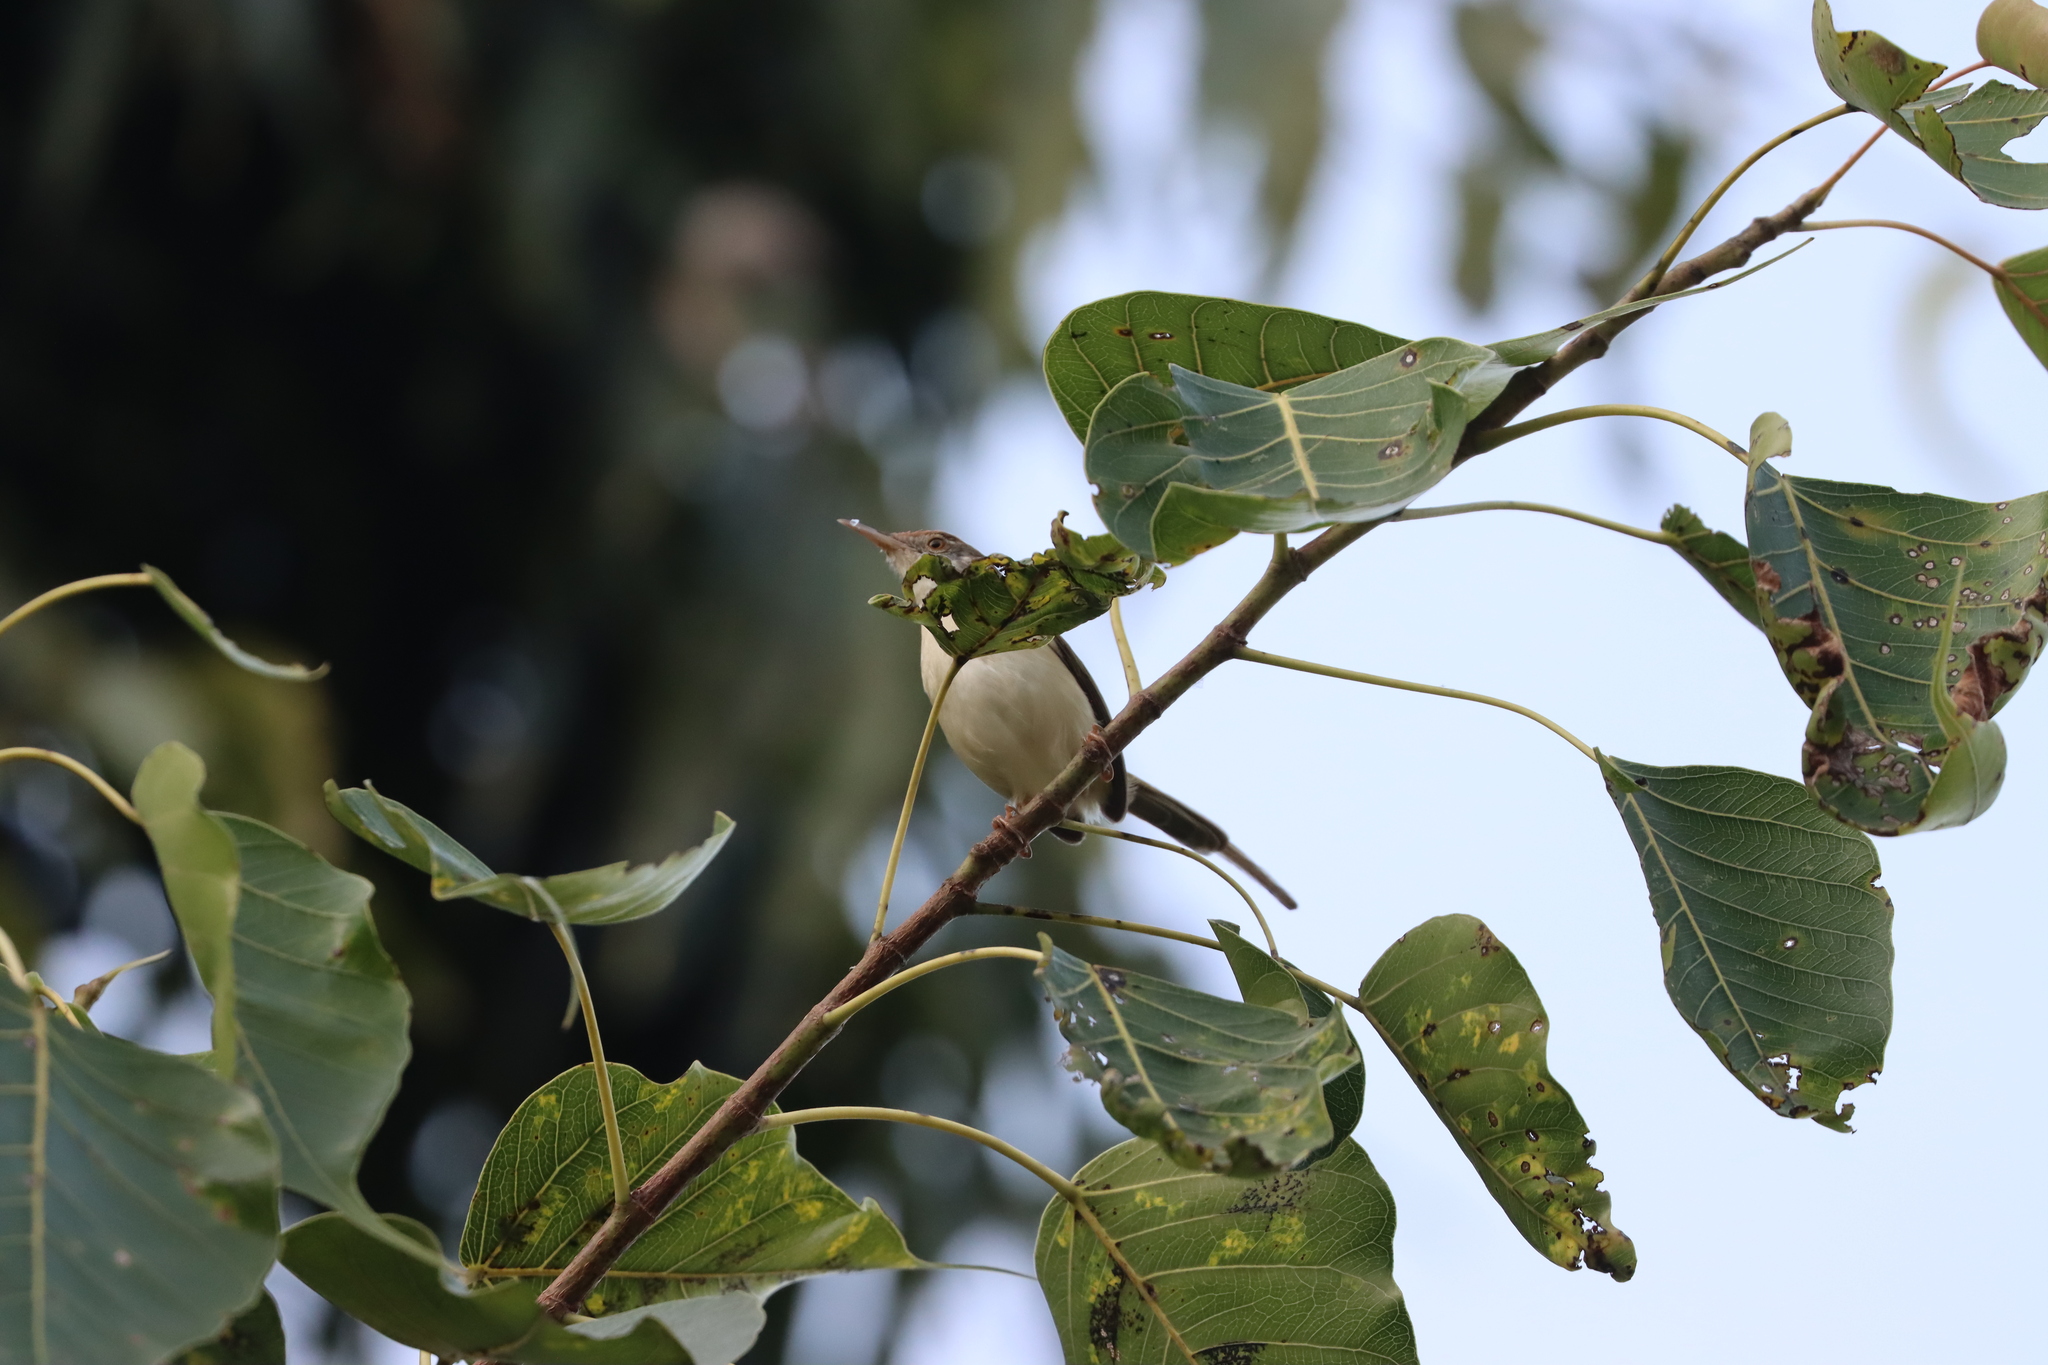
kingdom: Animalia
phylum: Chordata
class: Aves
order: Passeriformes
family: Cisticolidae
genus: Orthotomus
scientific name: Orthotomus sutorius
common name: Common tailorbird
